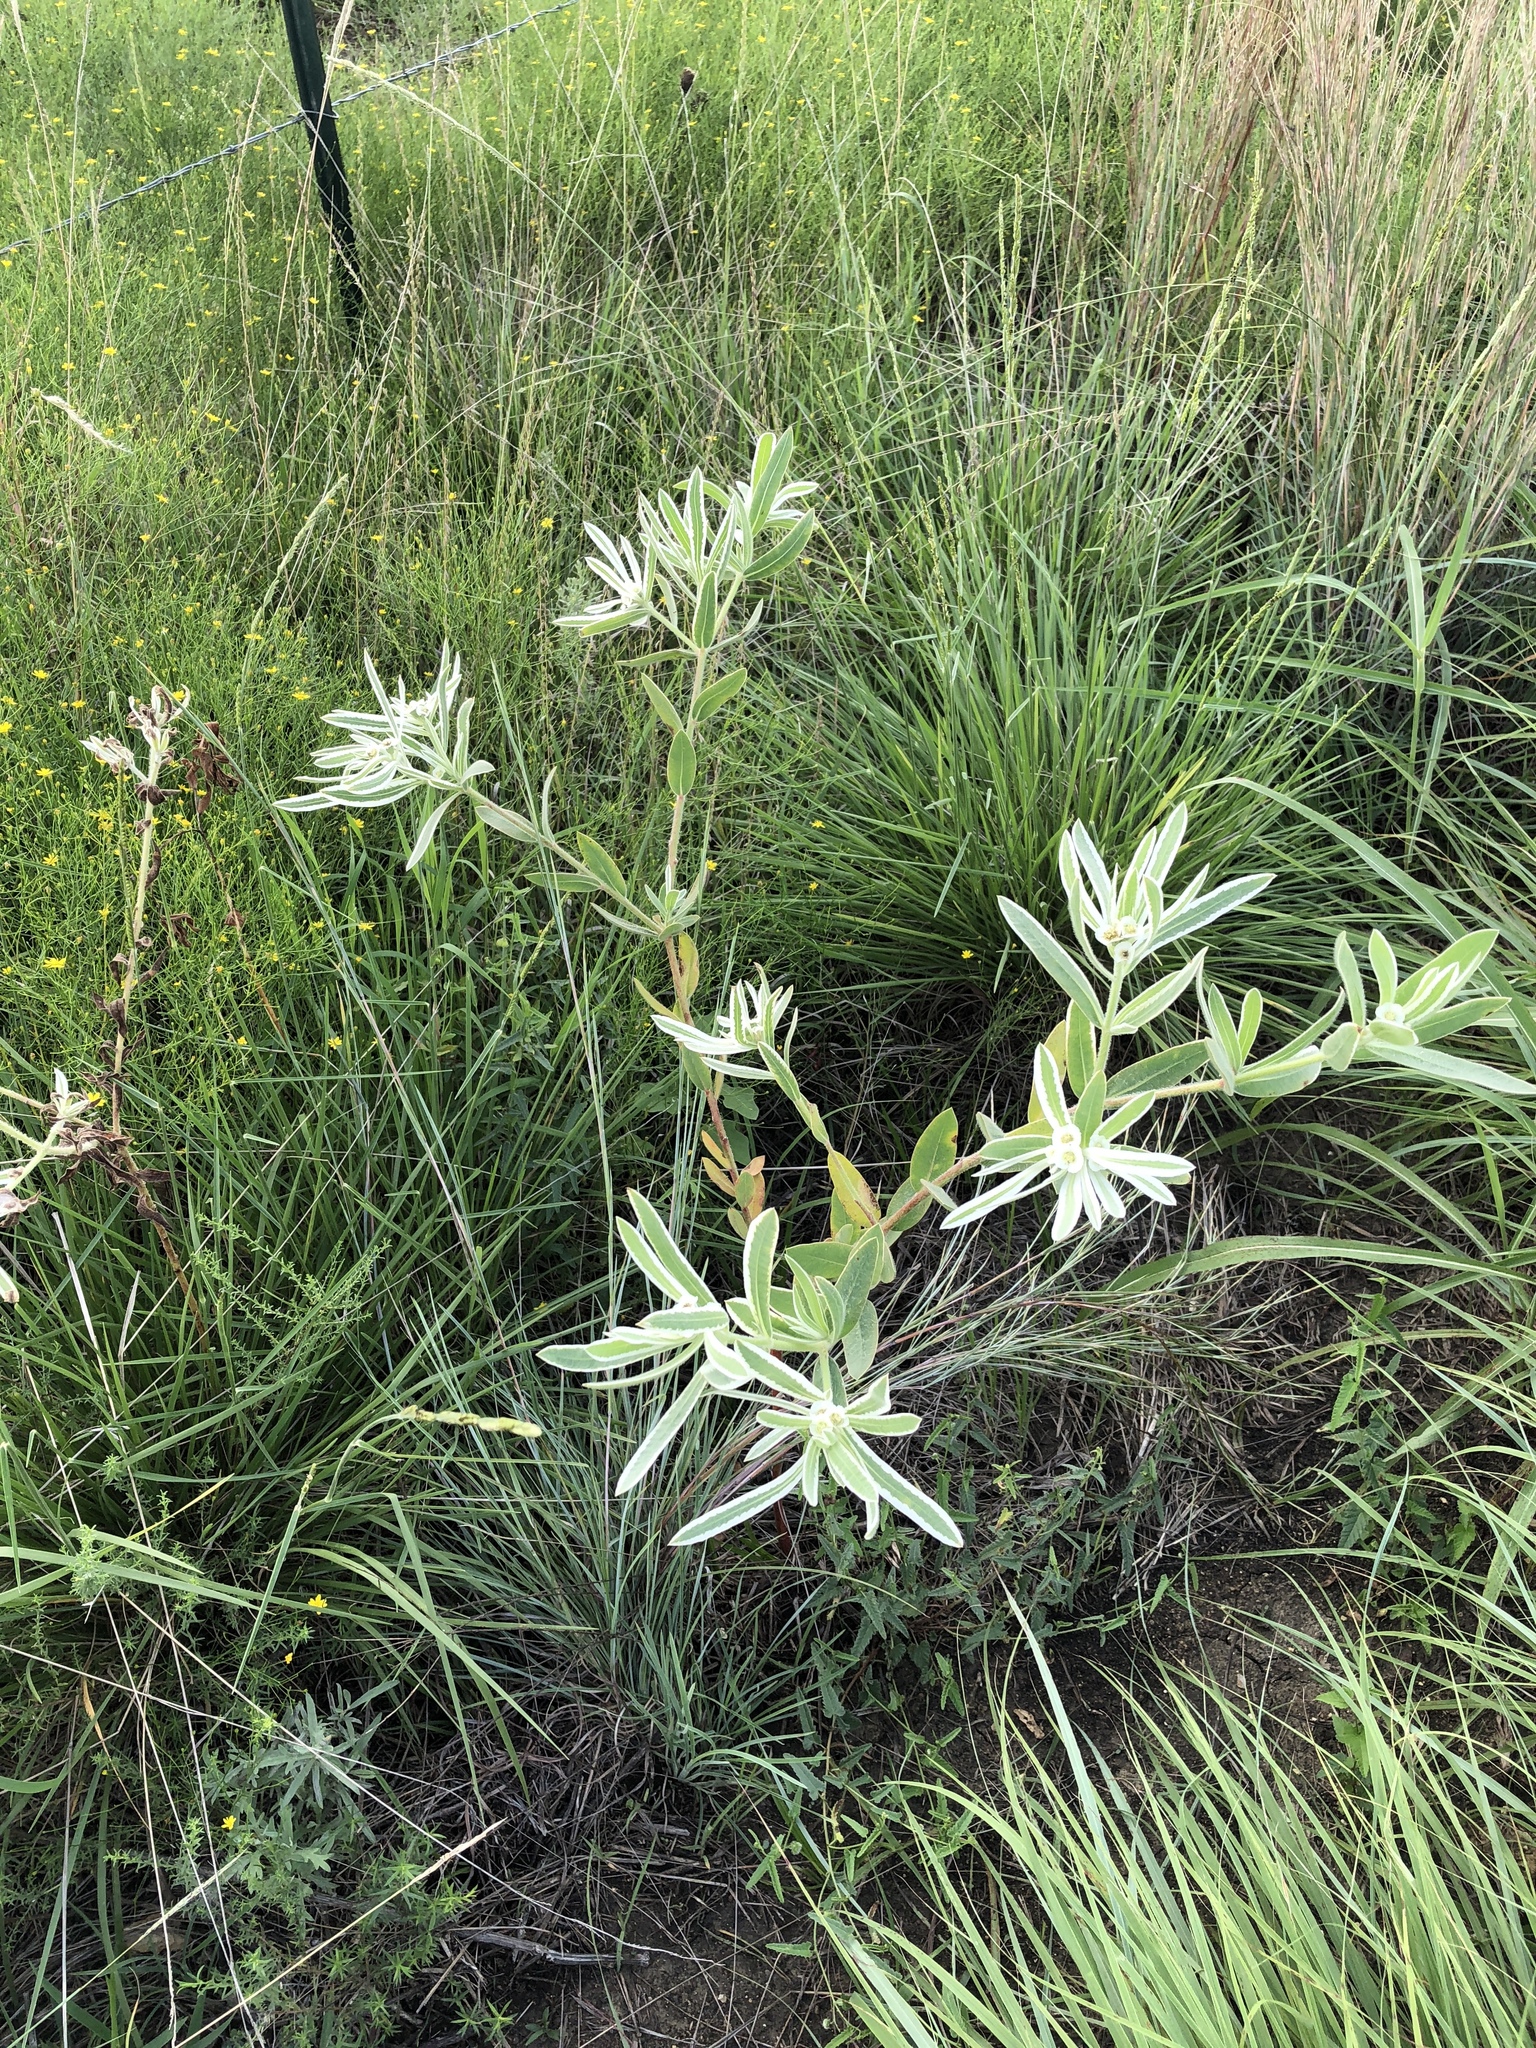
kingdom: Plantae
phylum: Tracheophyta
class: Magnoliopsida
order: Malpighiales
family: Euphorbiaceae
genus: Euphorbia
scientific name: Euphorbia bicolor
